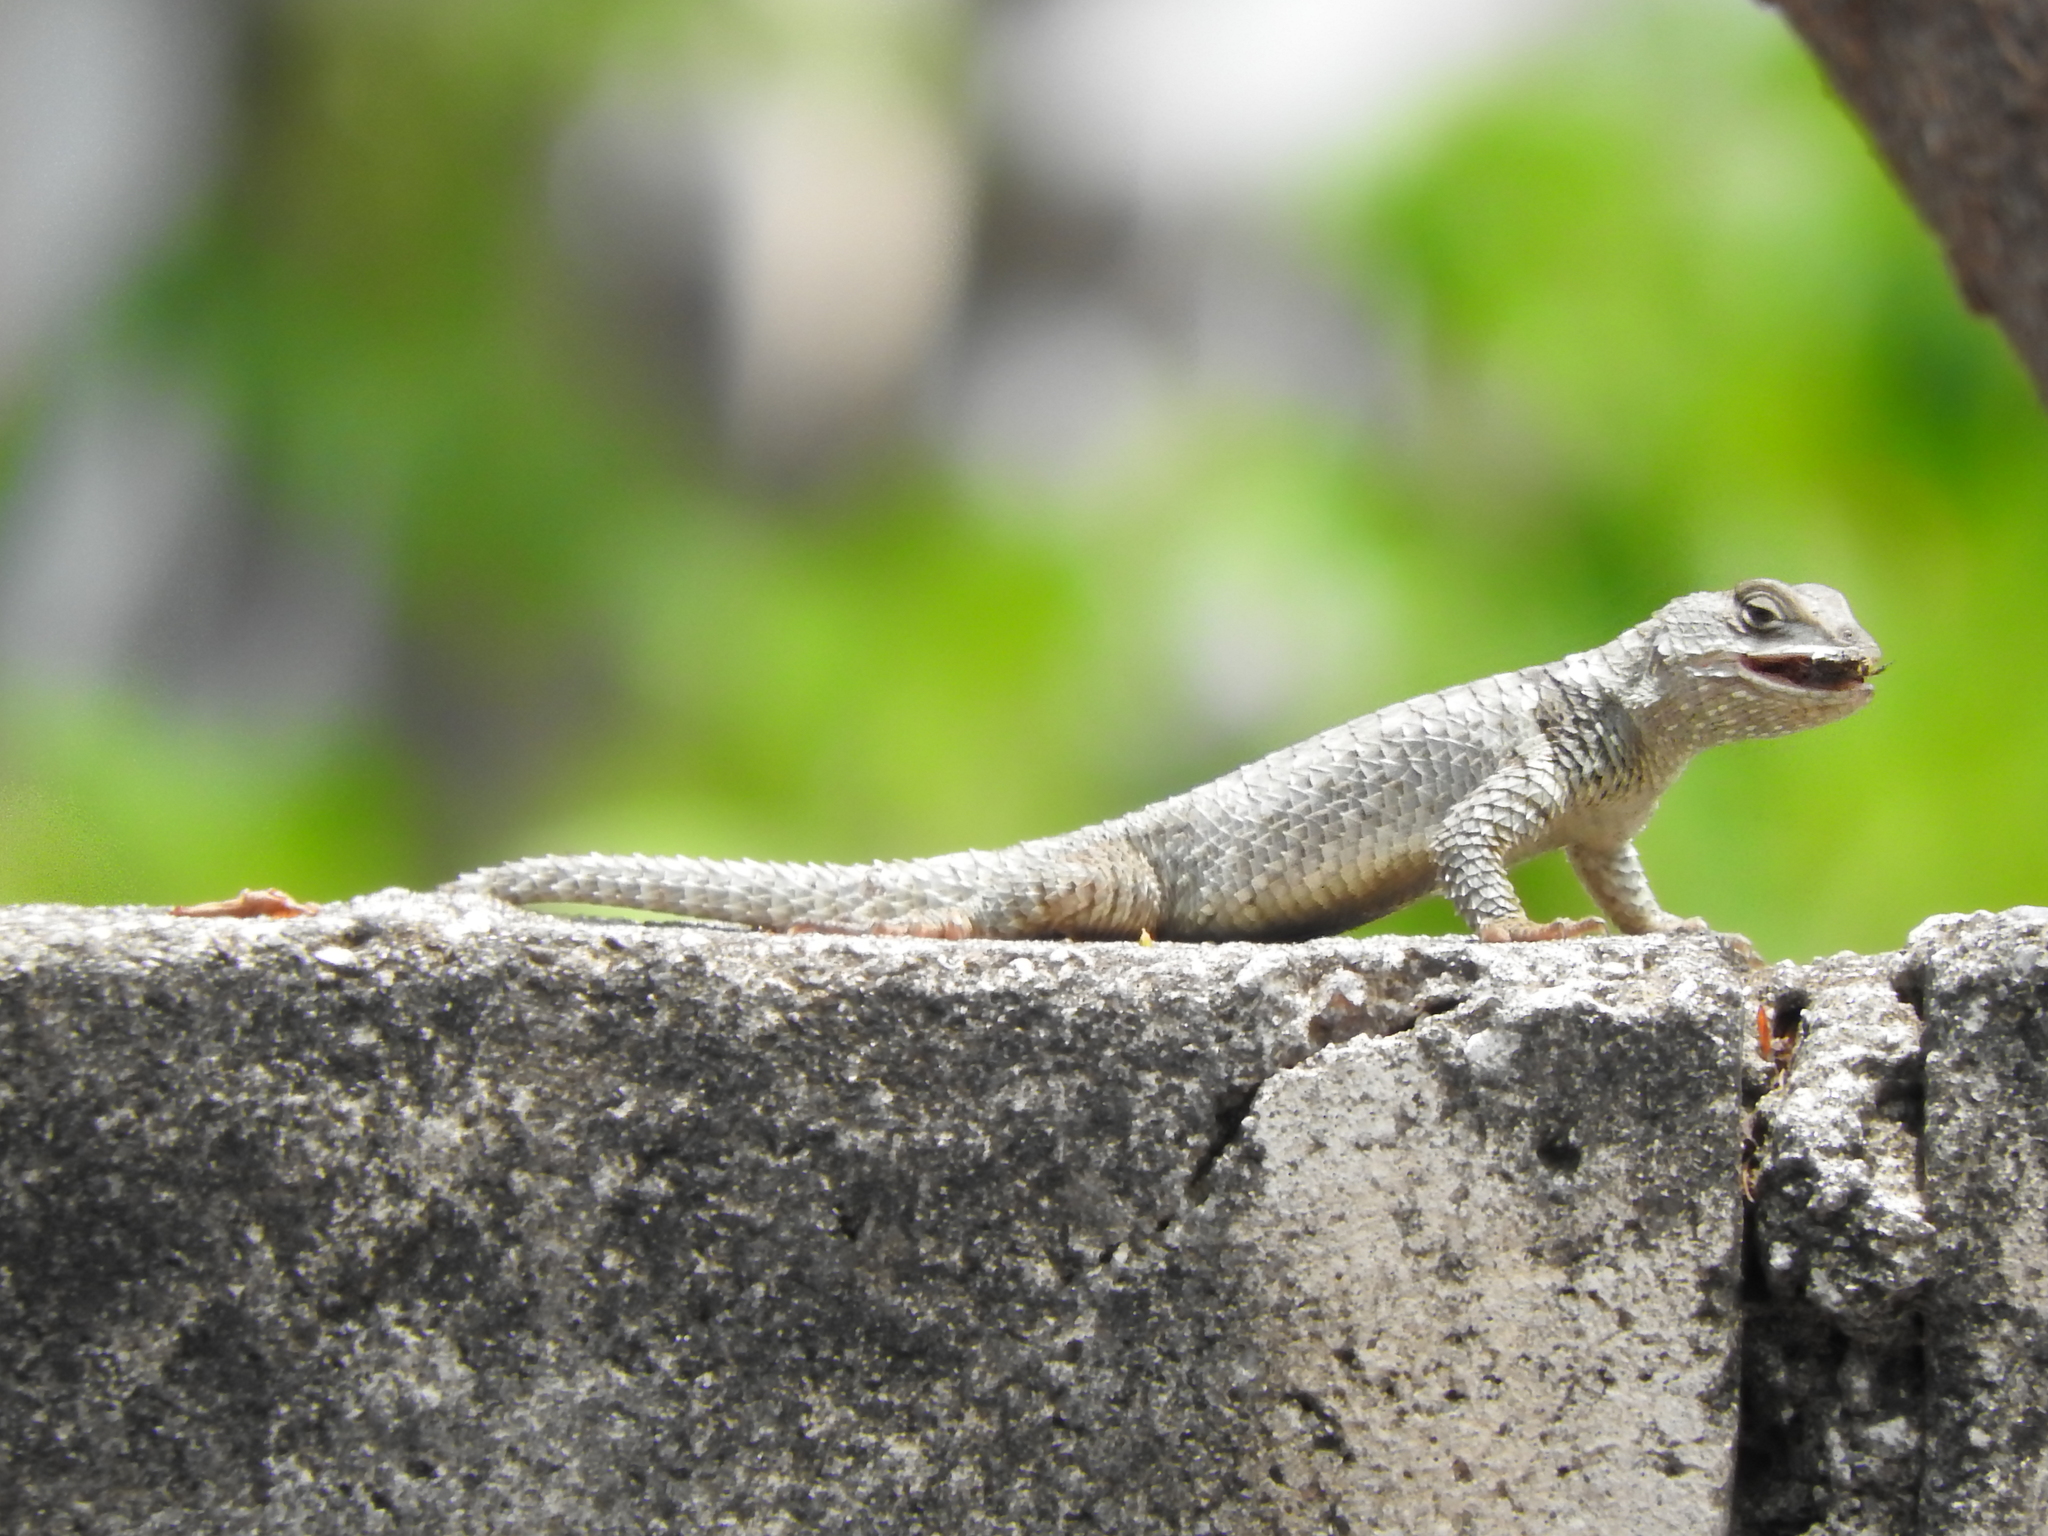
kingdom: Animalia
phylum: Chordata
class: Squamata
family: Phrynosomatidae
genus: Sceloporus
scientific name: Sceloporus torquatus
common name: Central plateau torquate lizard [melanogaster]
